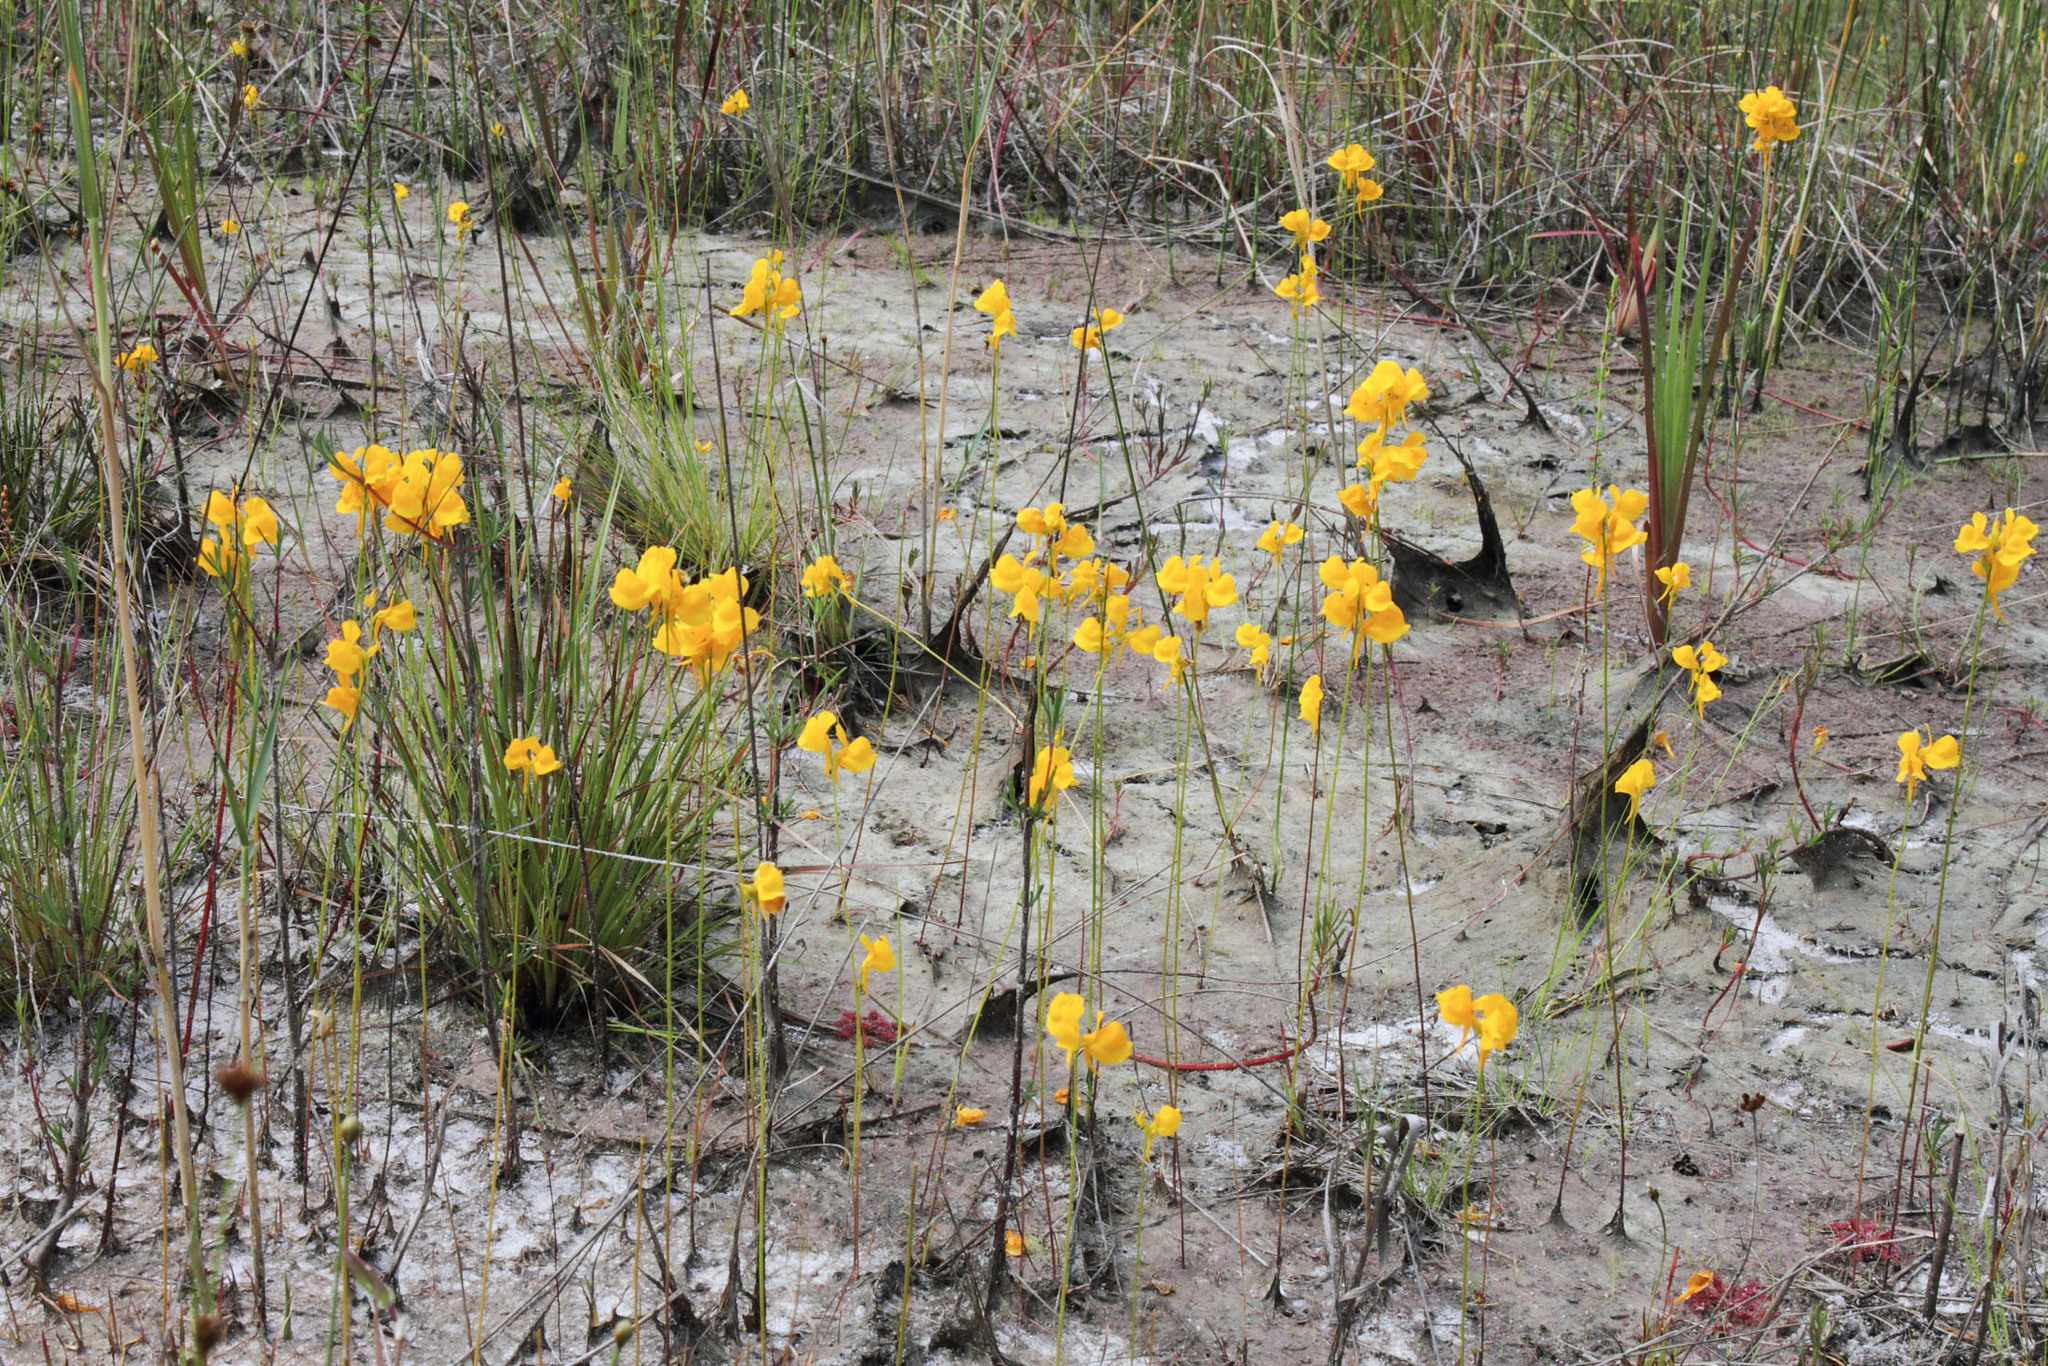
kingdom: Plantae
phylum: Tracheophyta
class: Magnoliopsida
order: Lamiales
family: Lentibulariaceae
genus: Utricularia
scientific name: Utricularia cornuta
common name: Horned bladderwort
